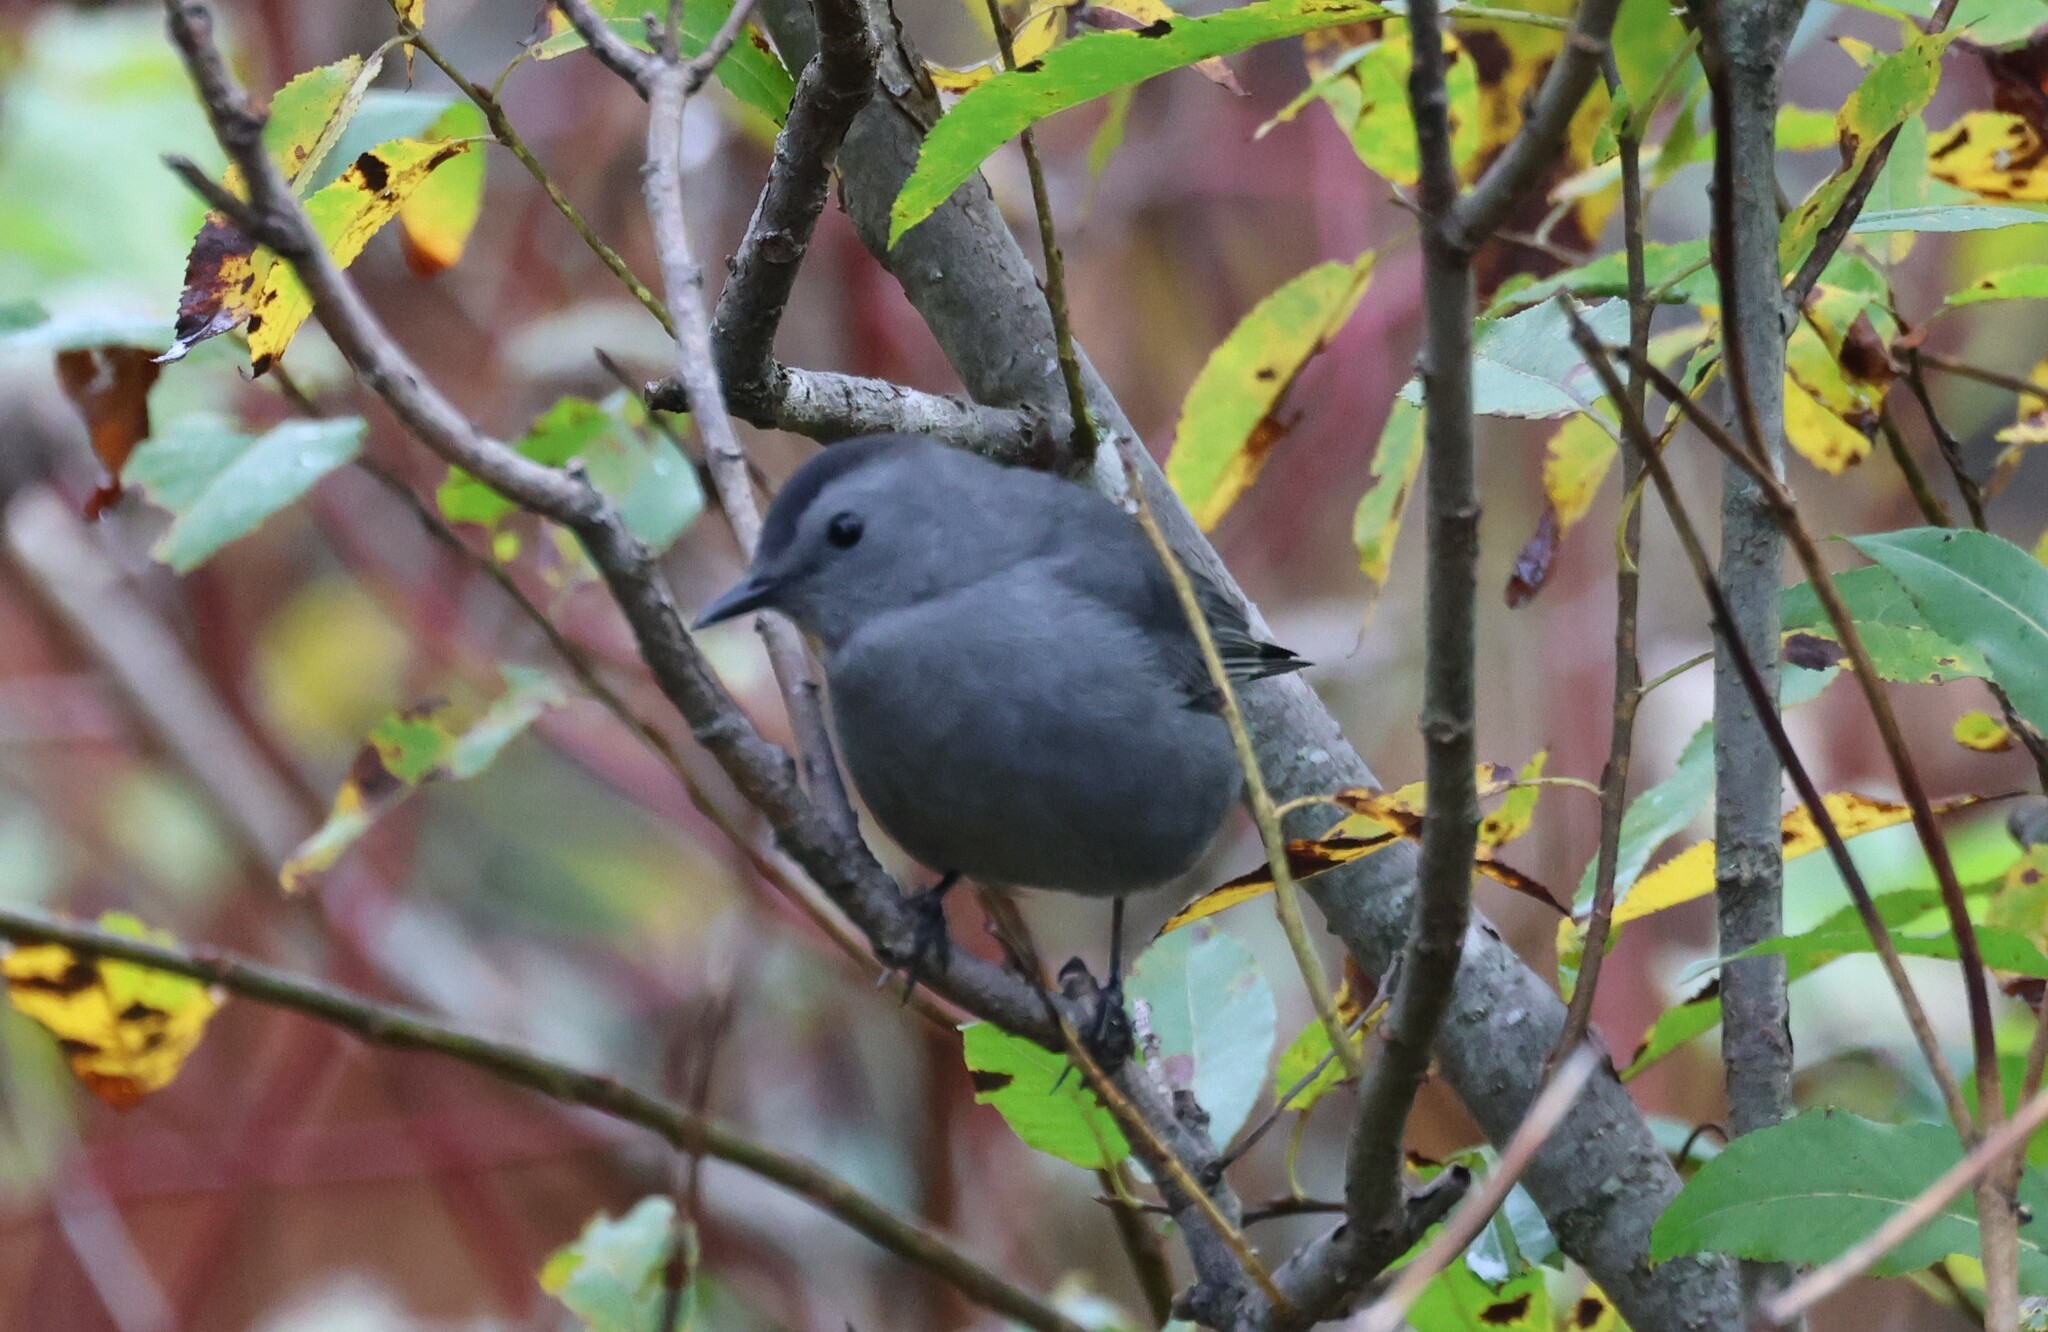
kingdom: Animalia
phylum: Chordata
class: Aves
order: Passeriformes
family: Mimidae
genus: Dumetella
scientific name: Dumetella carolinensis
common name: Gray catbird
